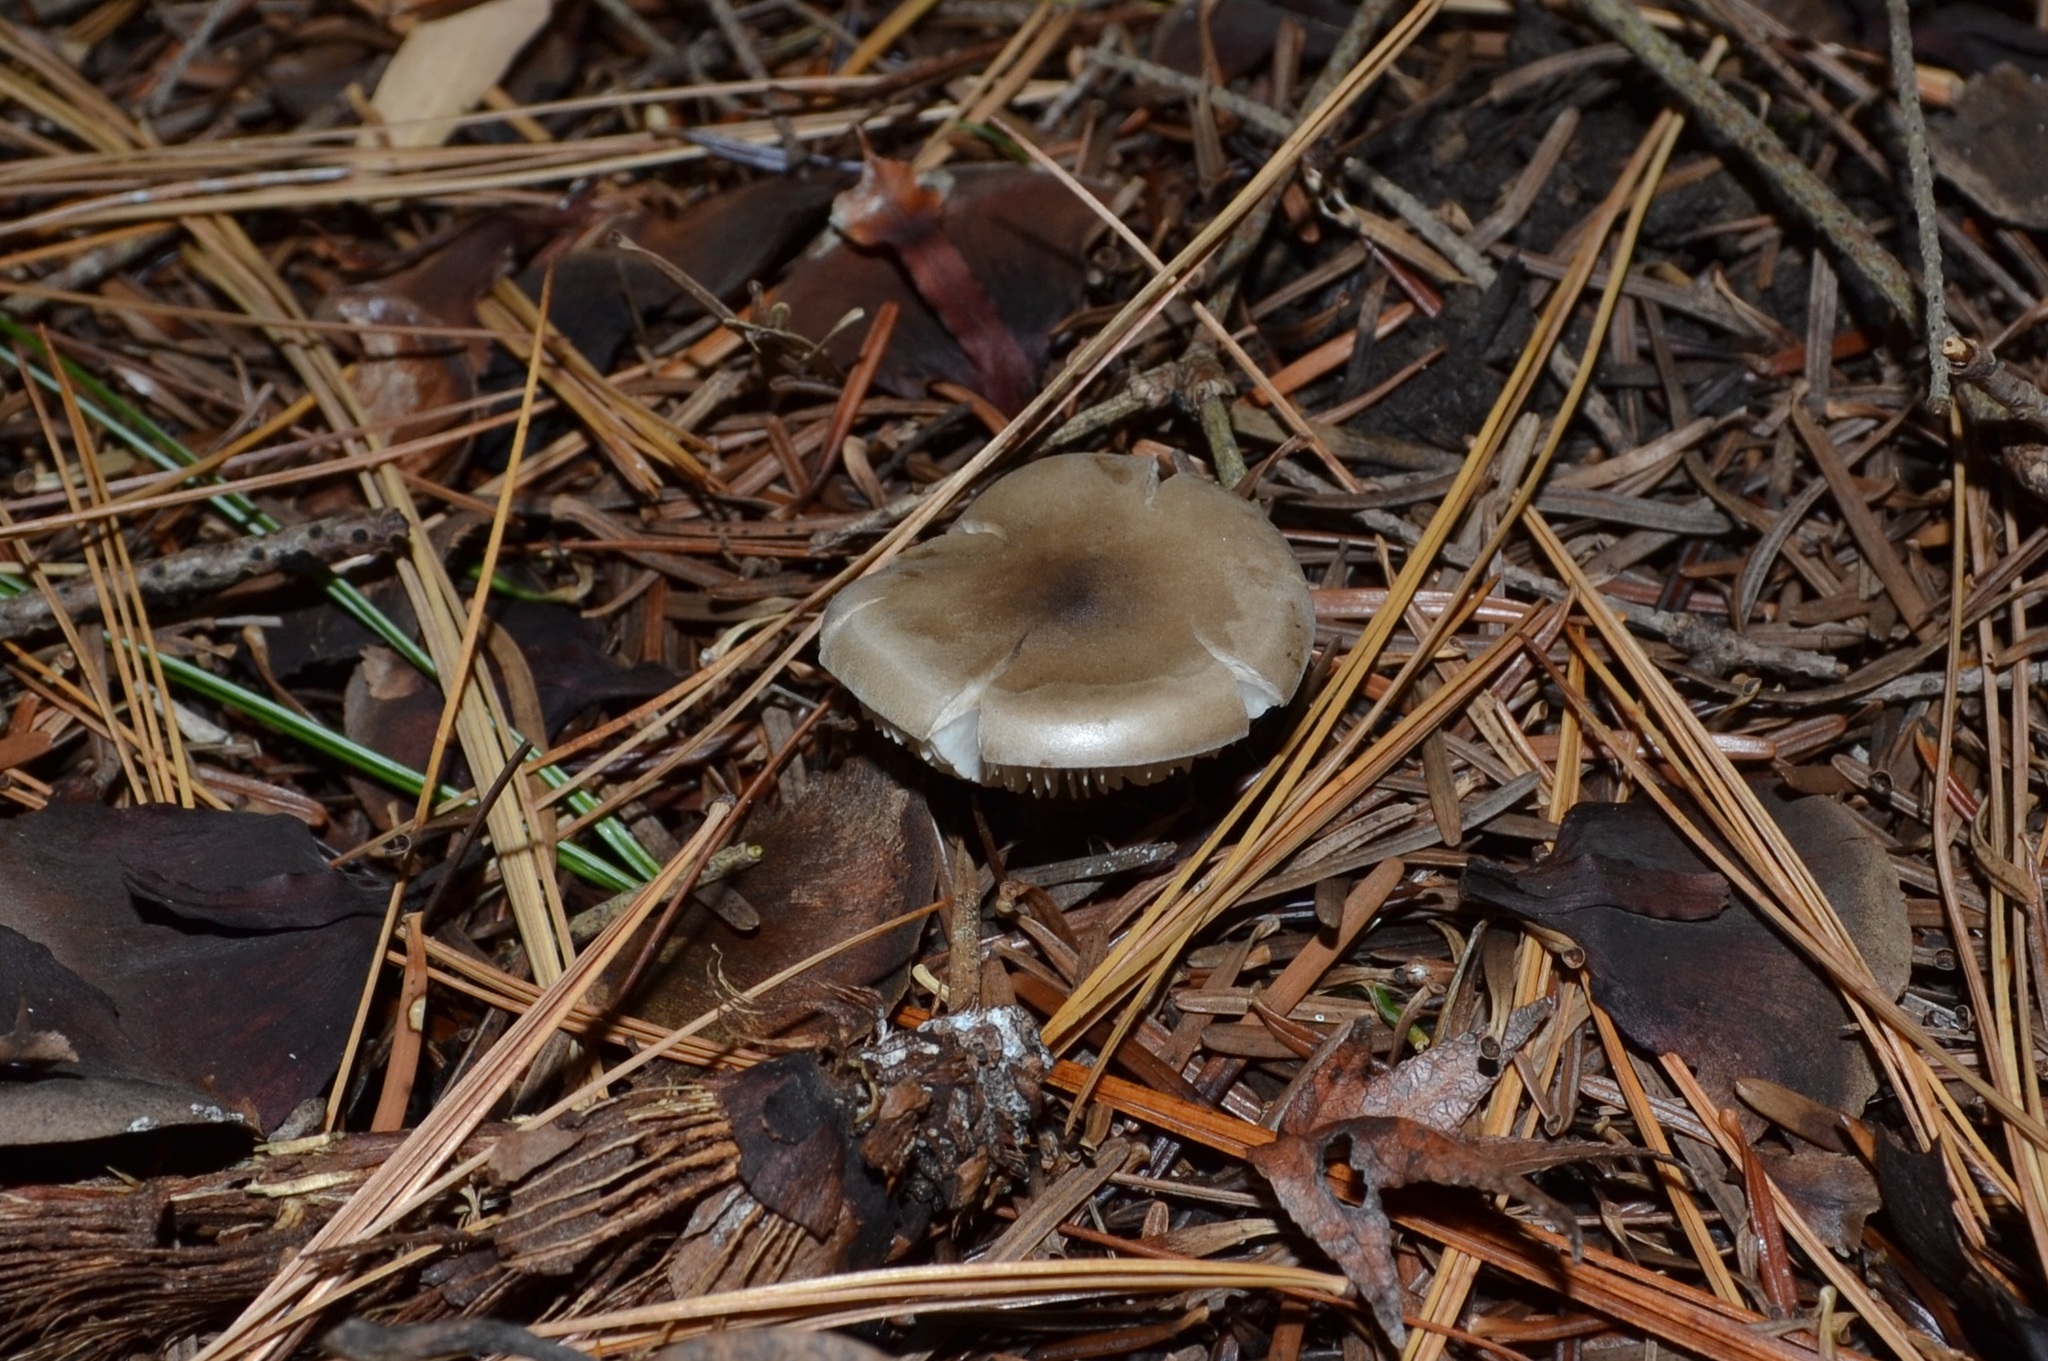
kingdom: Fungi
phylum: Basidiomycota
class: Agaricomycetes
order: Agaricales
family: Tricholomataceae
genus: Melanoleuca
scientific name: Melanoleuca brevipes
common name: Stunted cavalier
